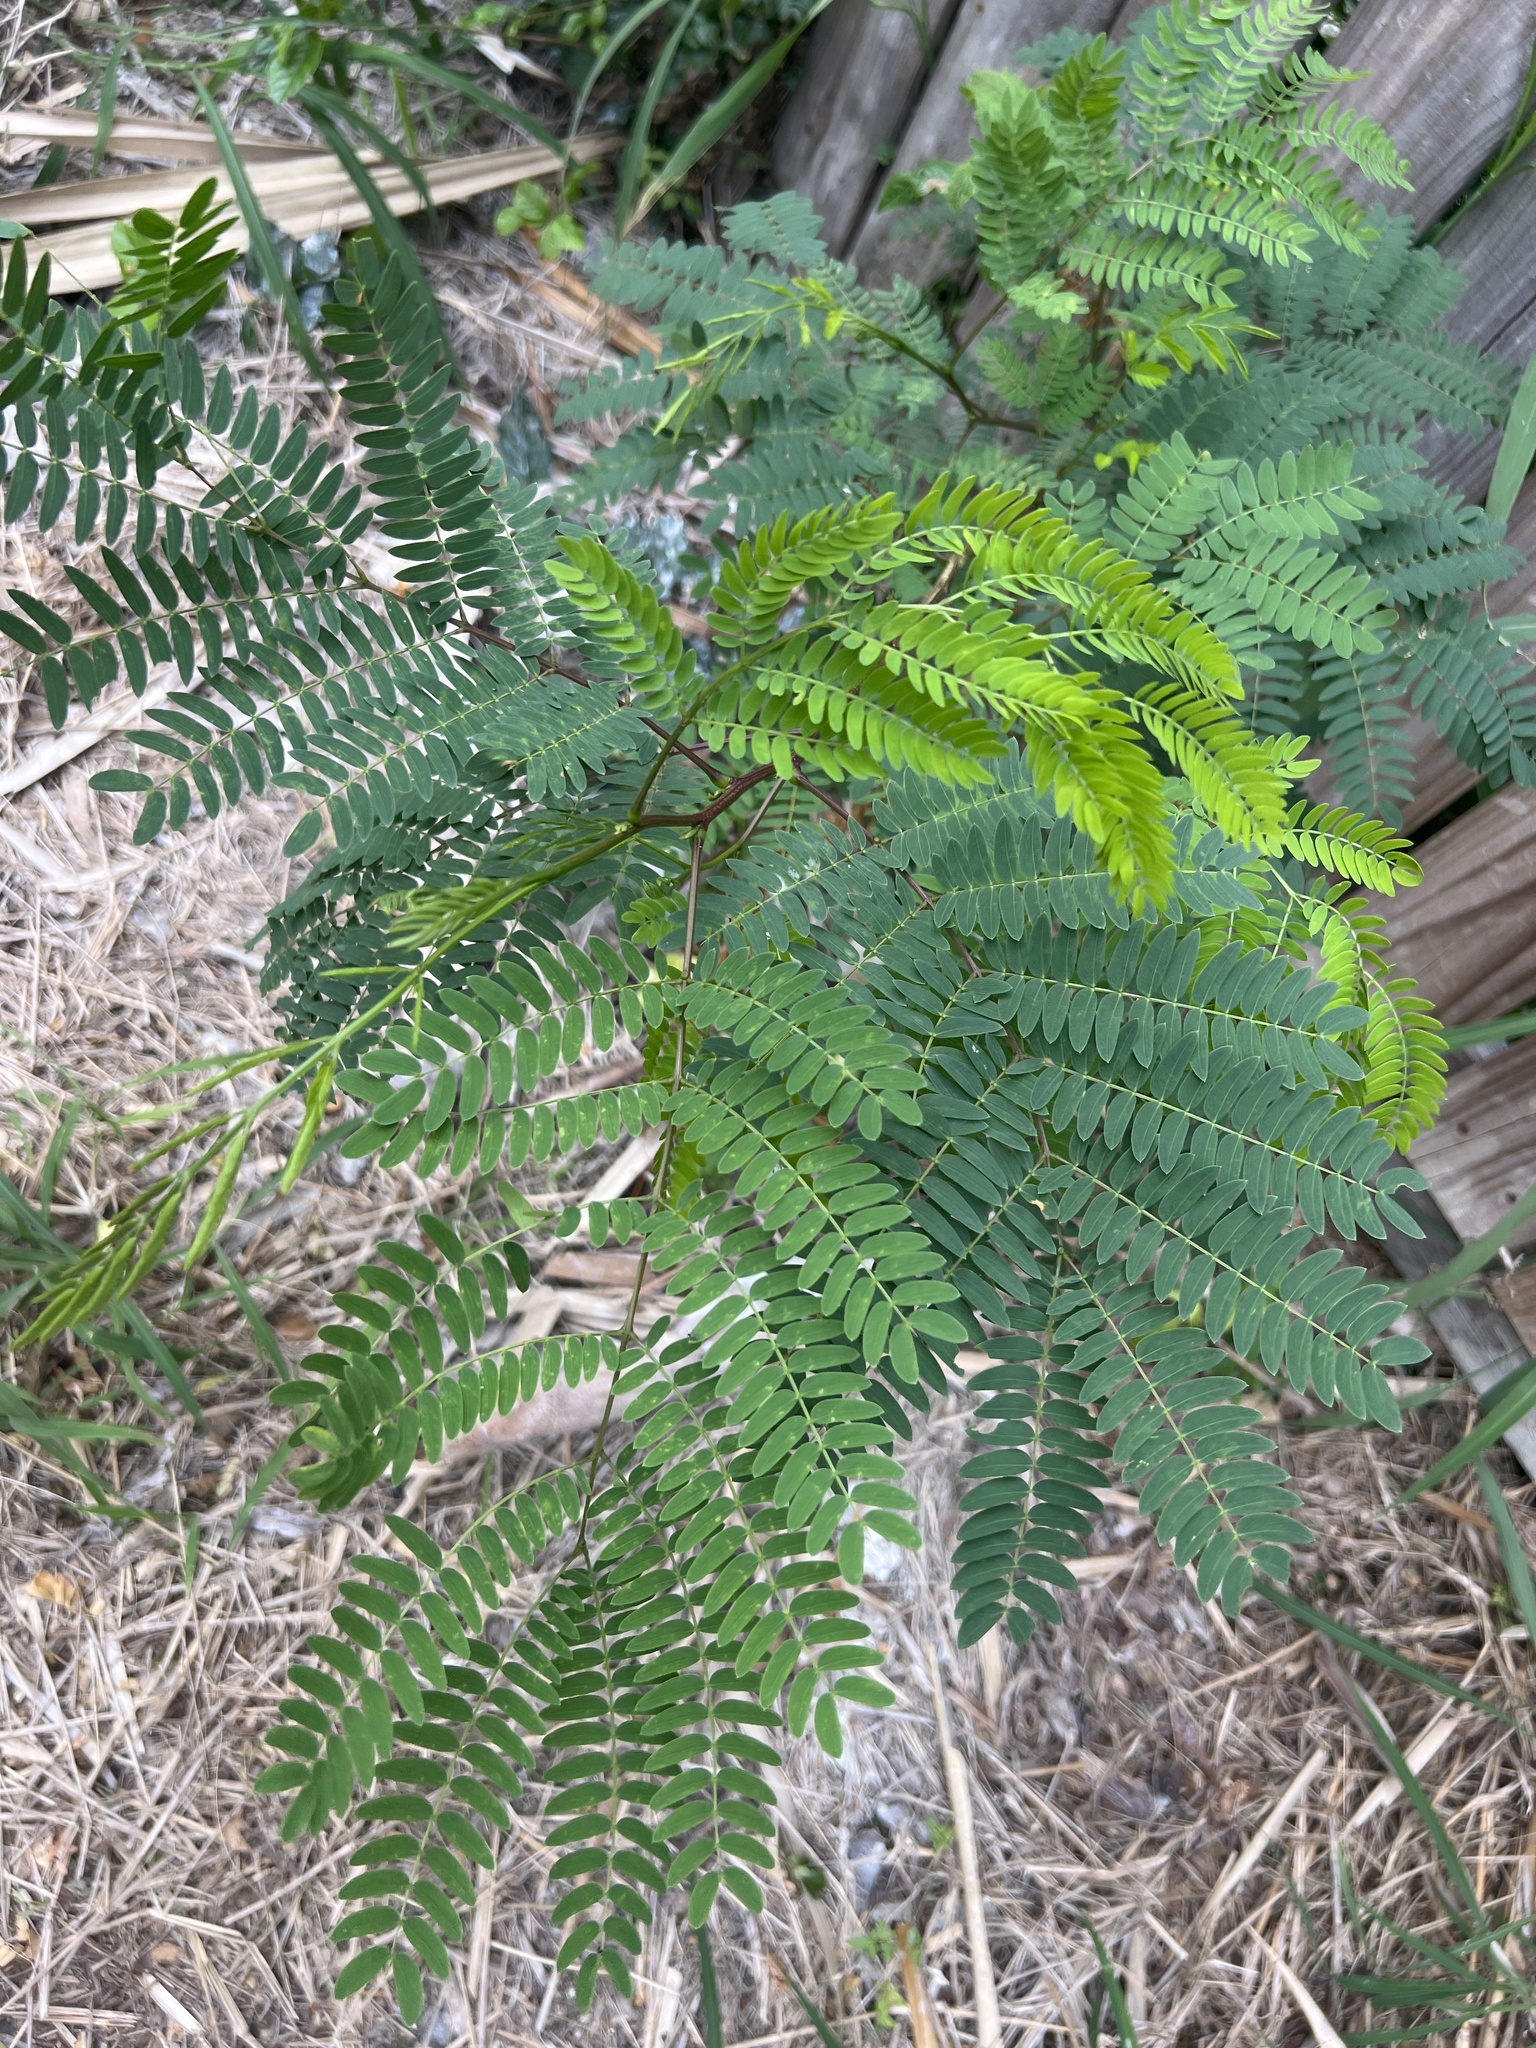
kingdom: Plantae
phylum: Tracheophyta
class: Magnoliopsida
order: Fabales
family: Fabaceae
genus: Leucaena
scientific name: Leucaena leucocephala
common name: White leadtree
